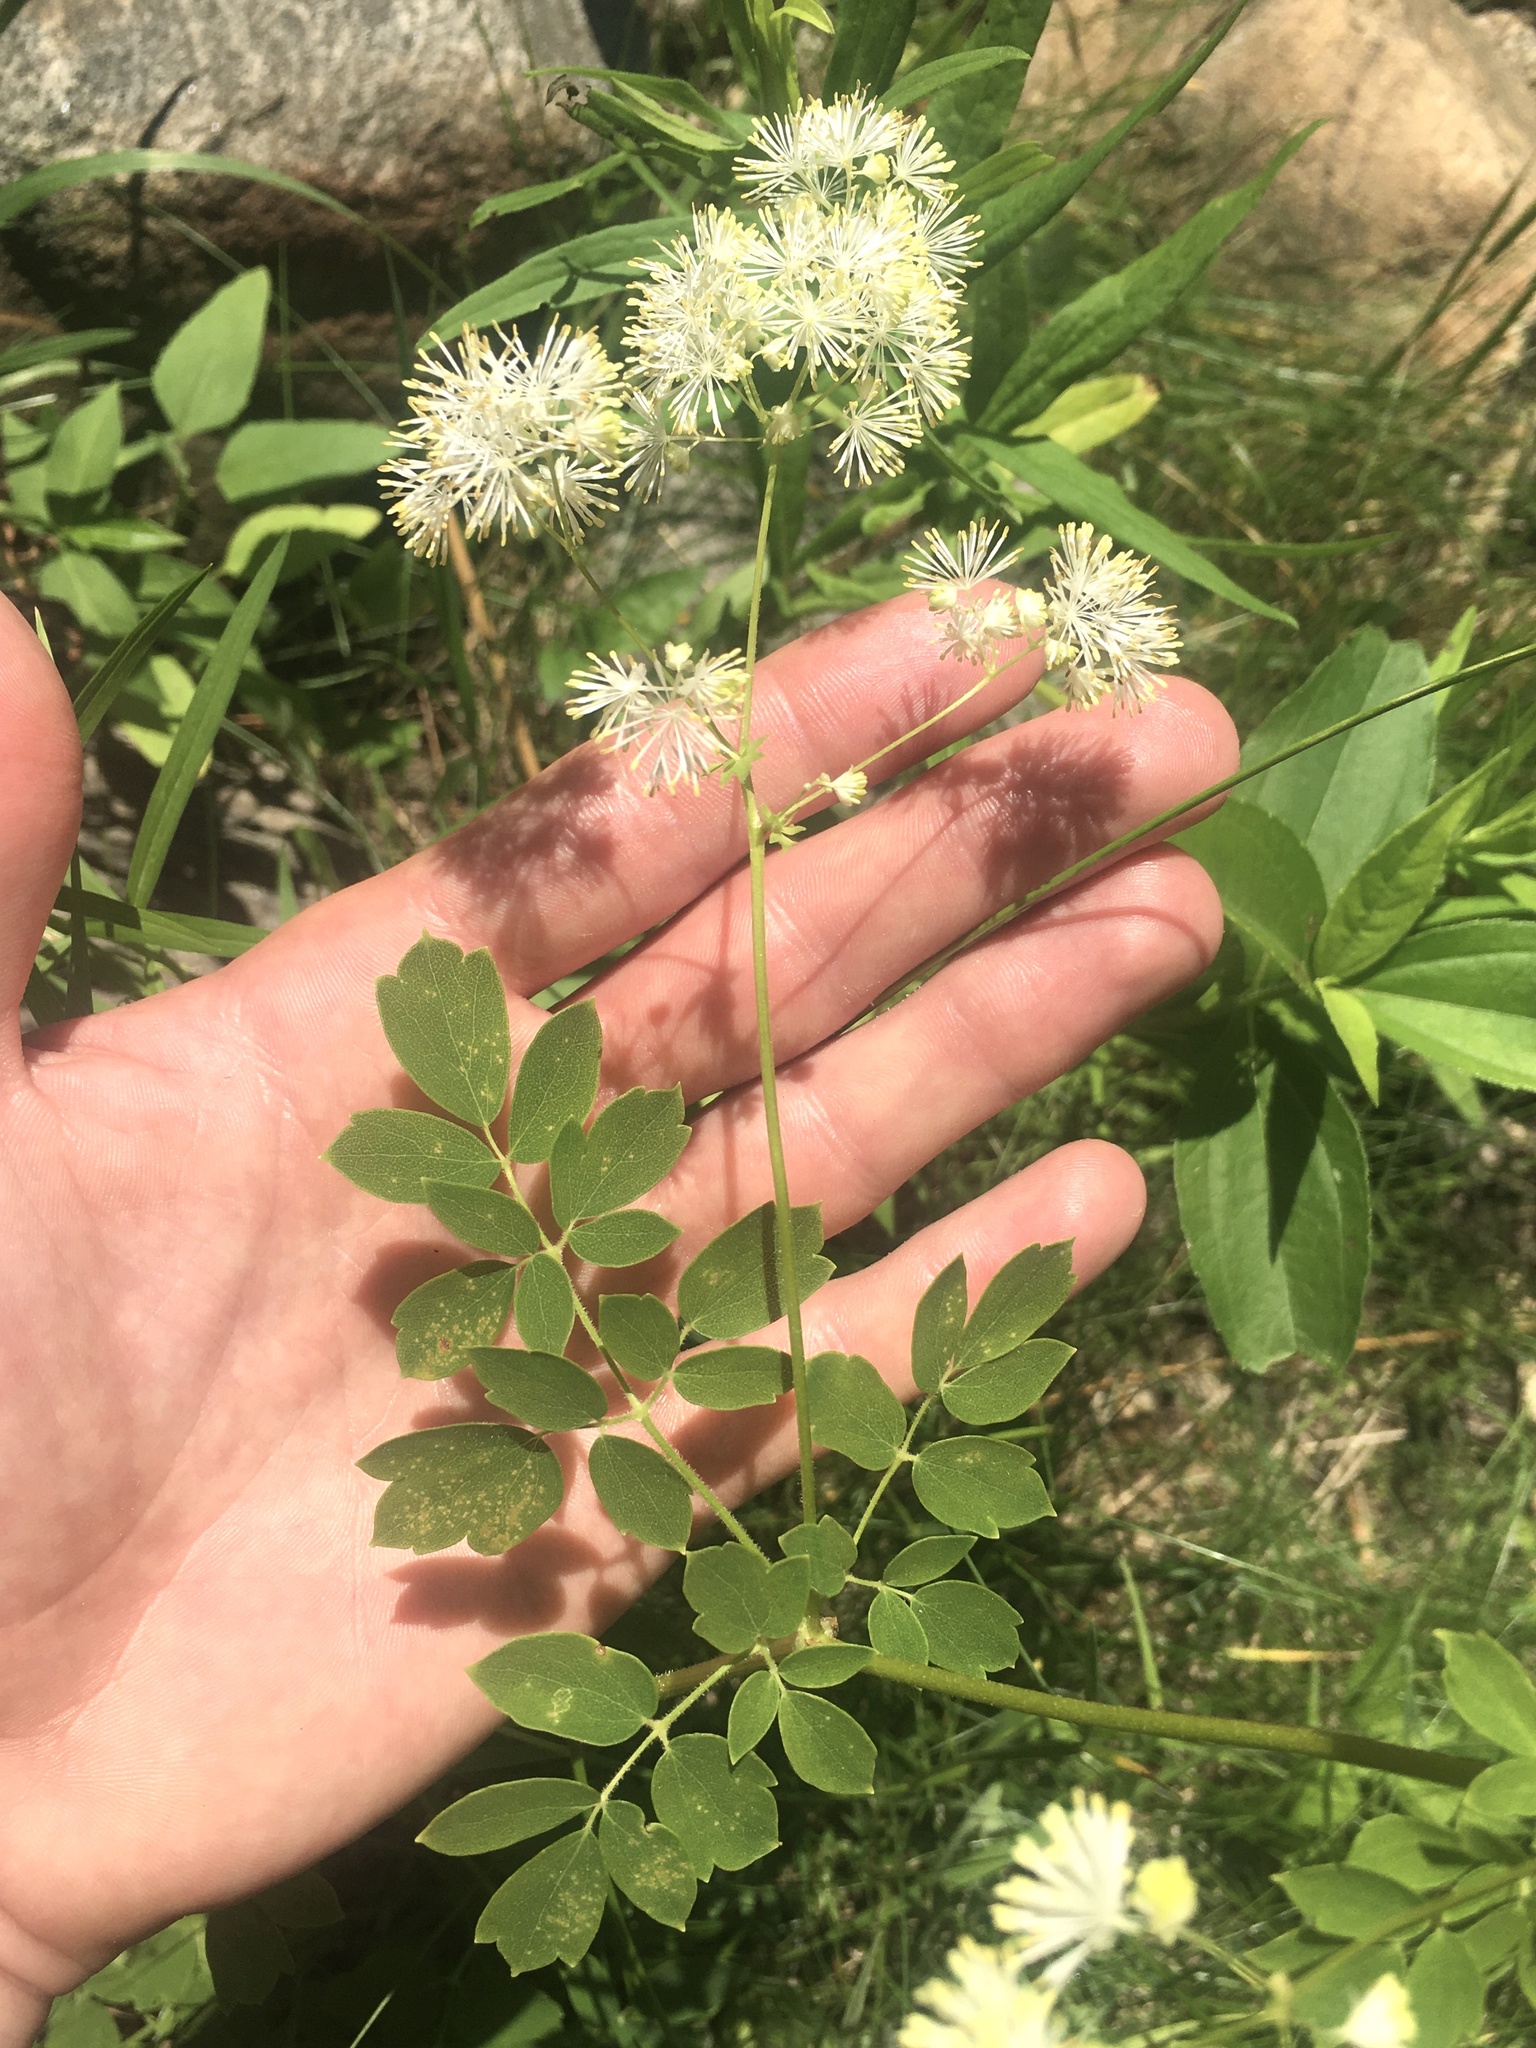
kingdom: Plantae
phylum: Tracheophyta
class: Magnoliopsida
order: Ranunculales
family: Ranunculaceae
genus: Thalictrum
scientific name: Thalictrum pubescens
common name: King-of-the-meadow
